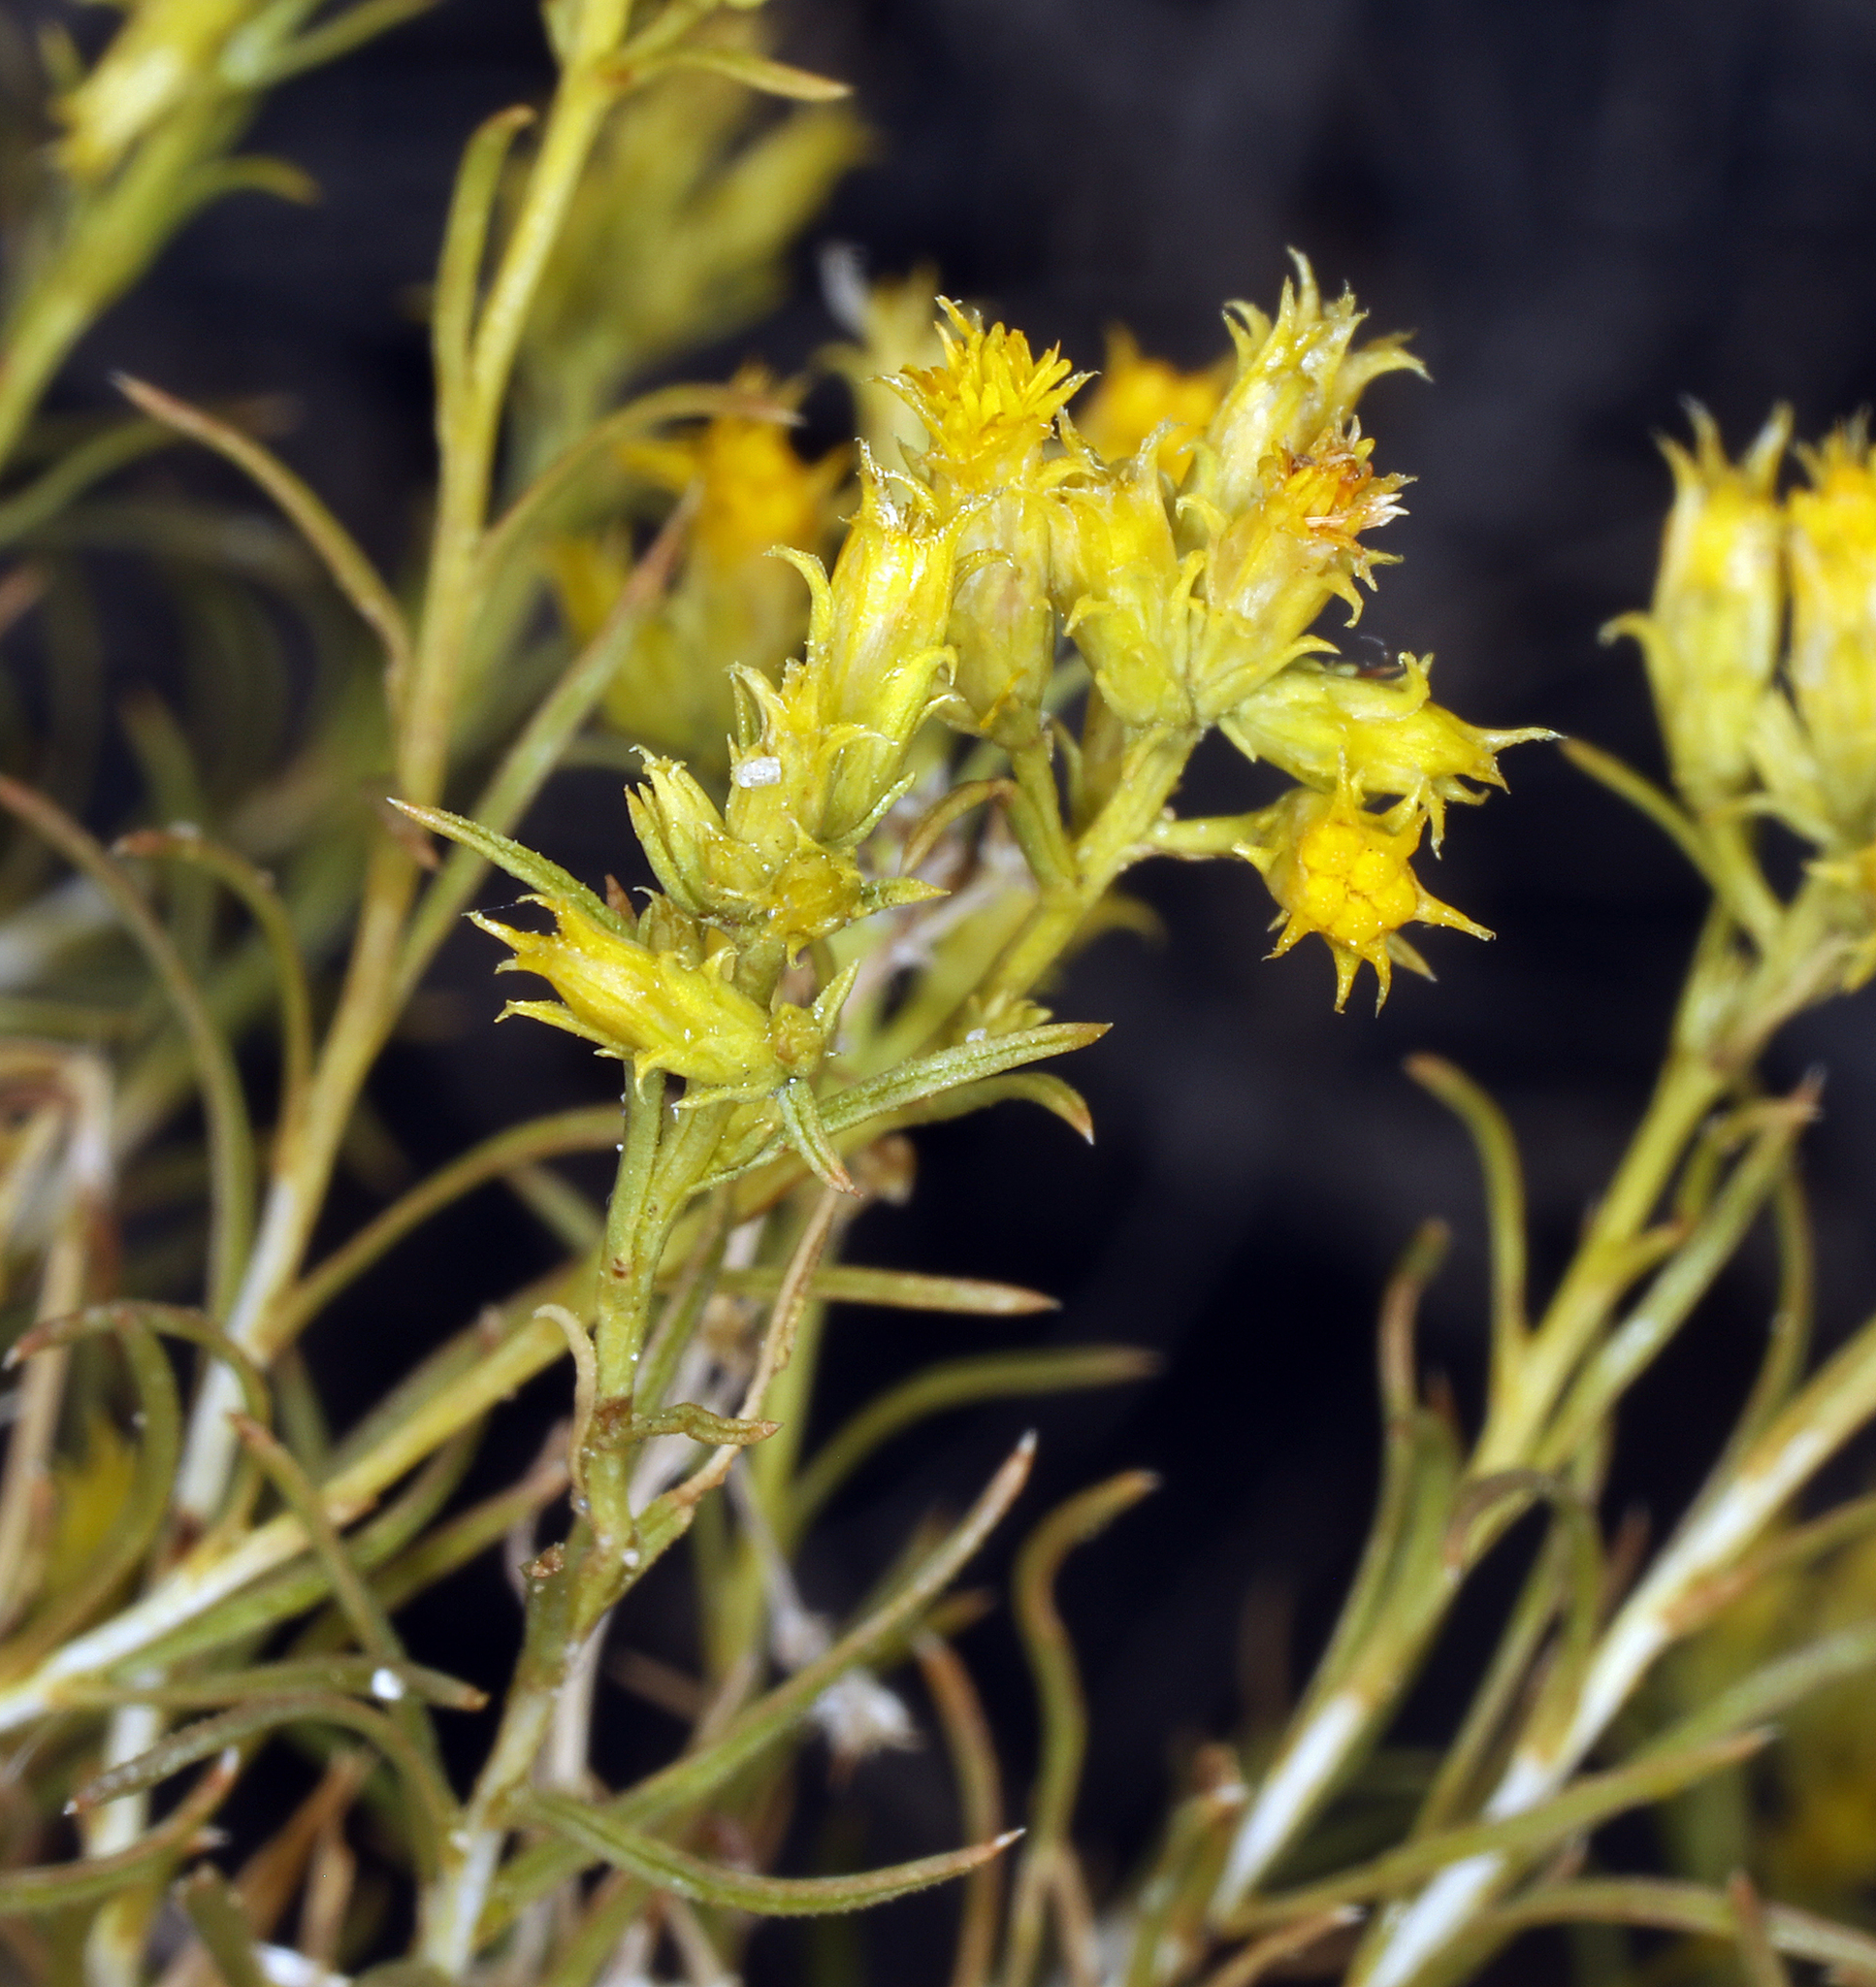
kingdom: Plantae
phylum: Tracheophyta
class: Magnoliopsida
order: Asterales
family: Asteraceae
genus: Chrysothamnus
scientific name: Chrysothamnus greenei
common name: Greene's rabbitbrush
